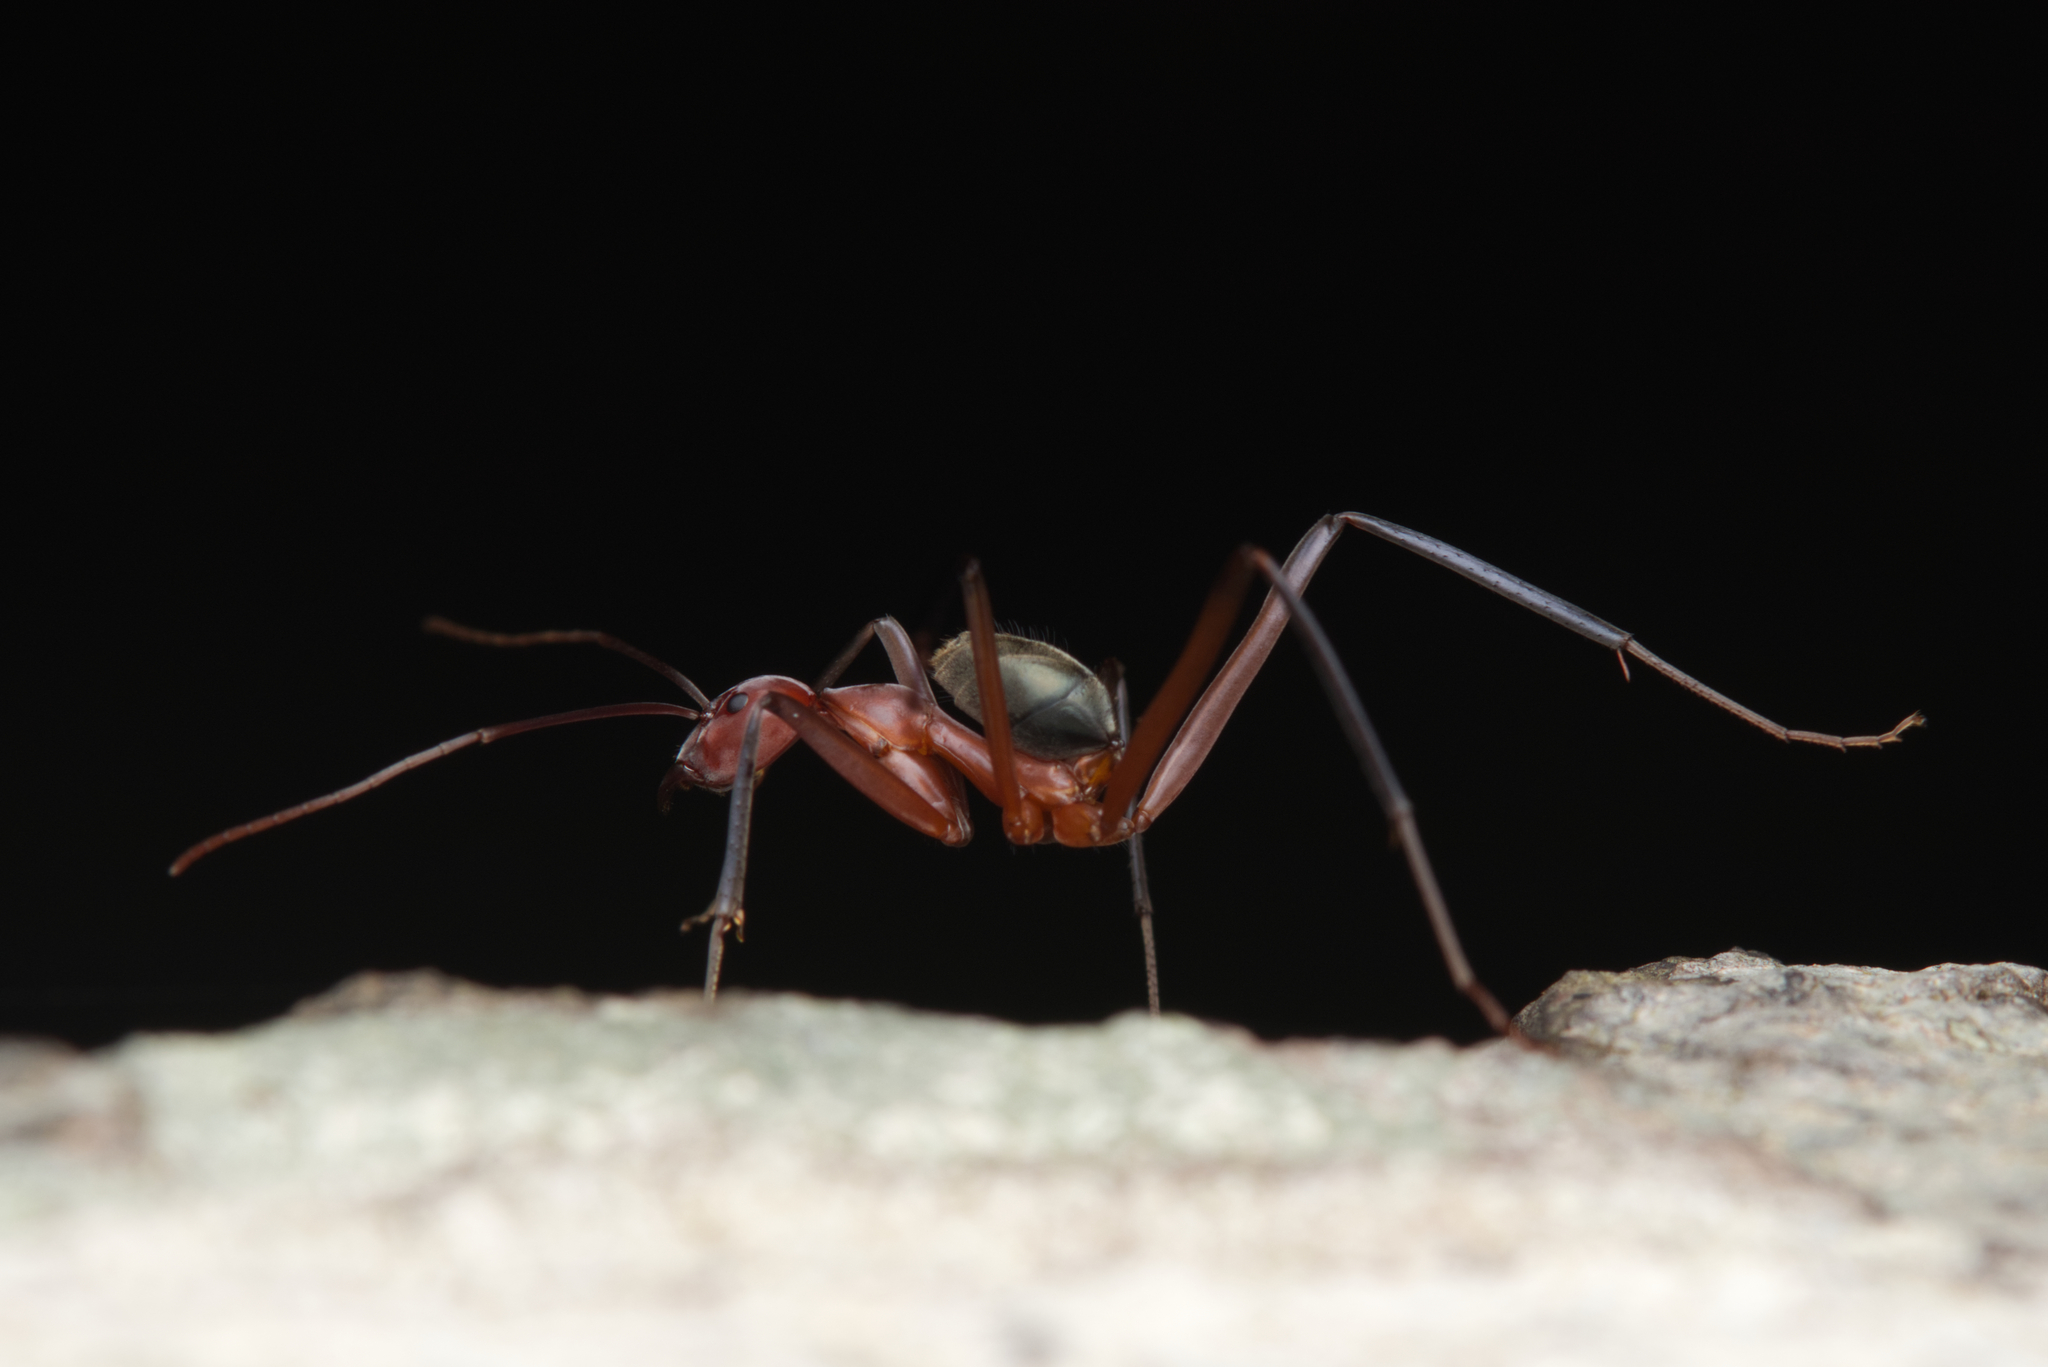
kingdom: Animalia
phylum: Arthropoda
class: Insecta
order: Hymenoptera
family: Formicidae
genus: Leptomyrmex
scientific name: Leptomyrmex tibialis
